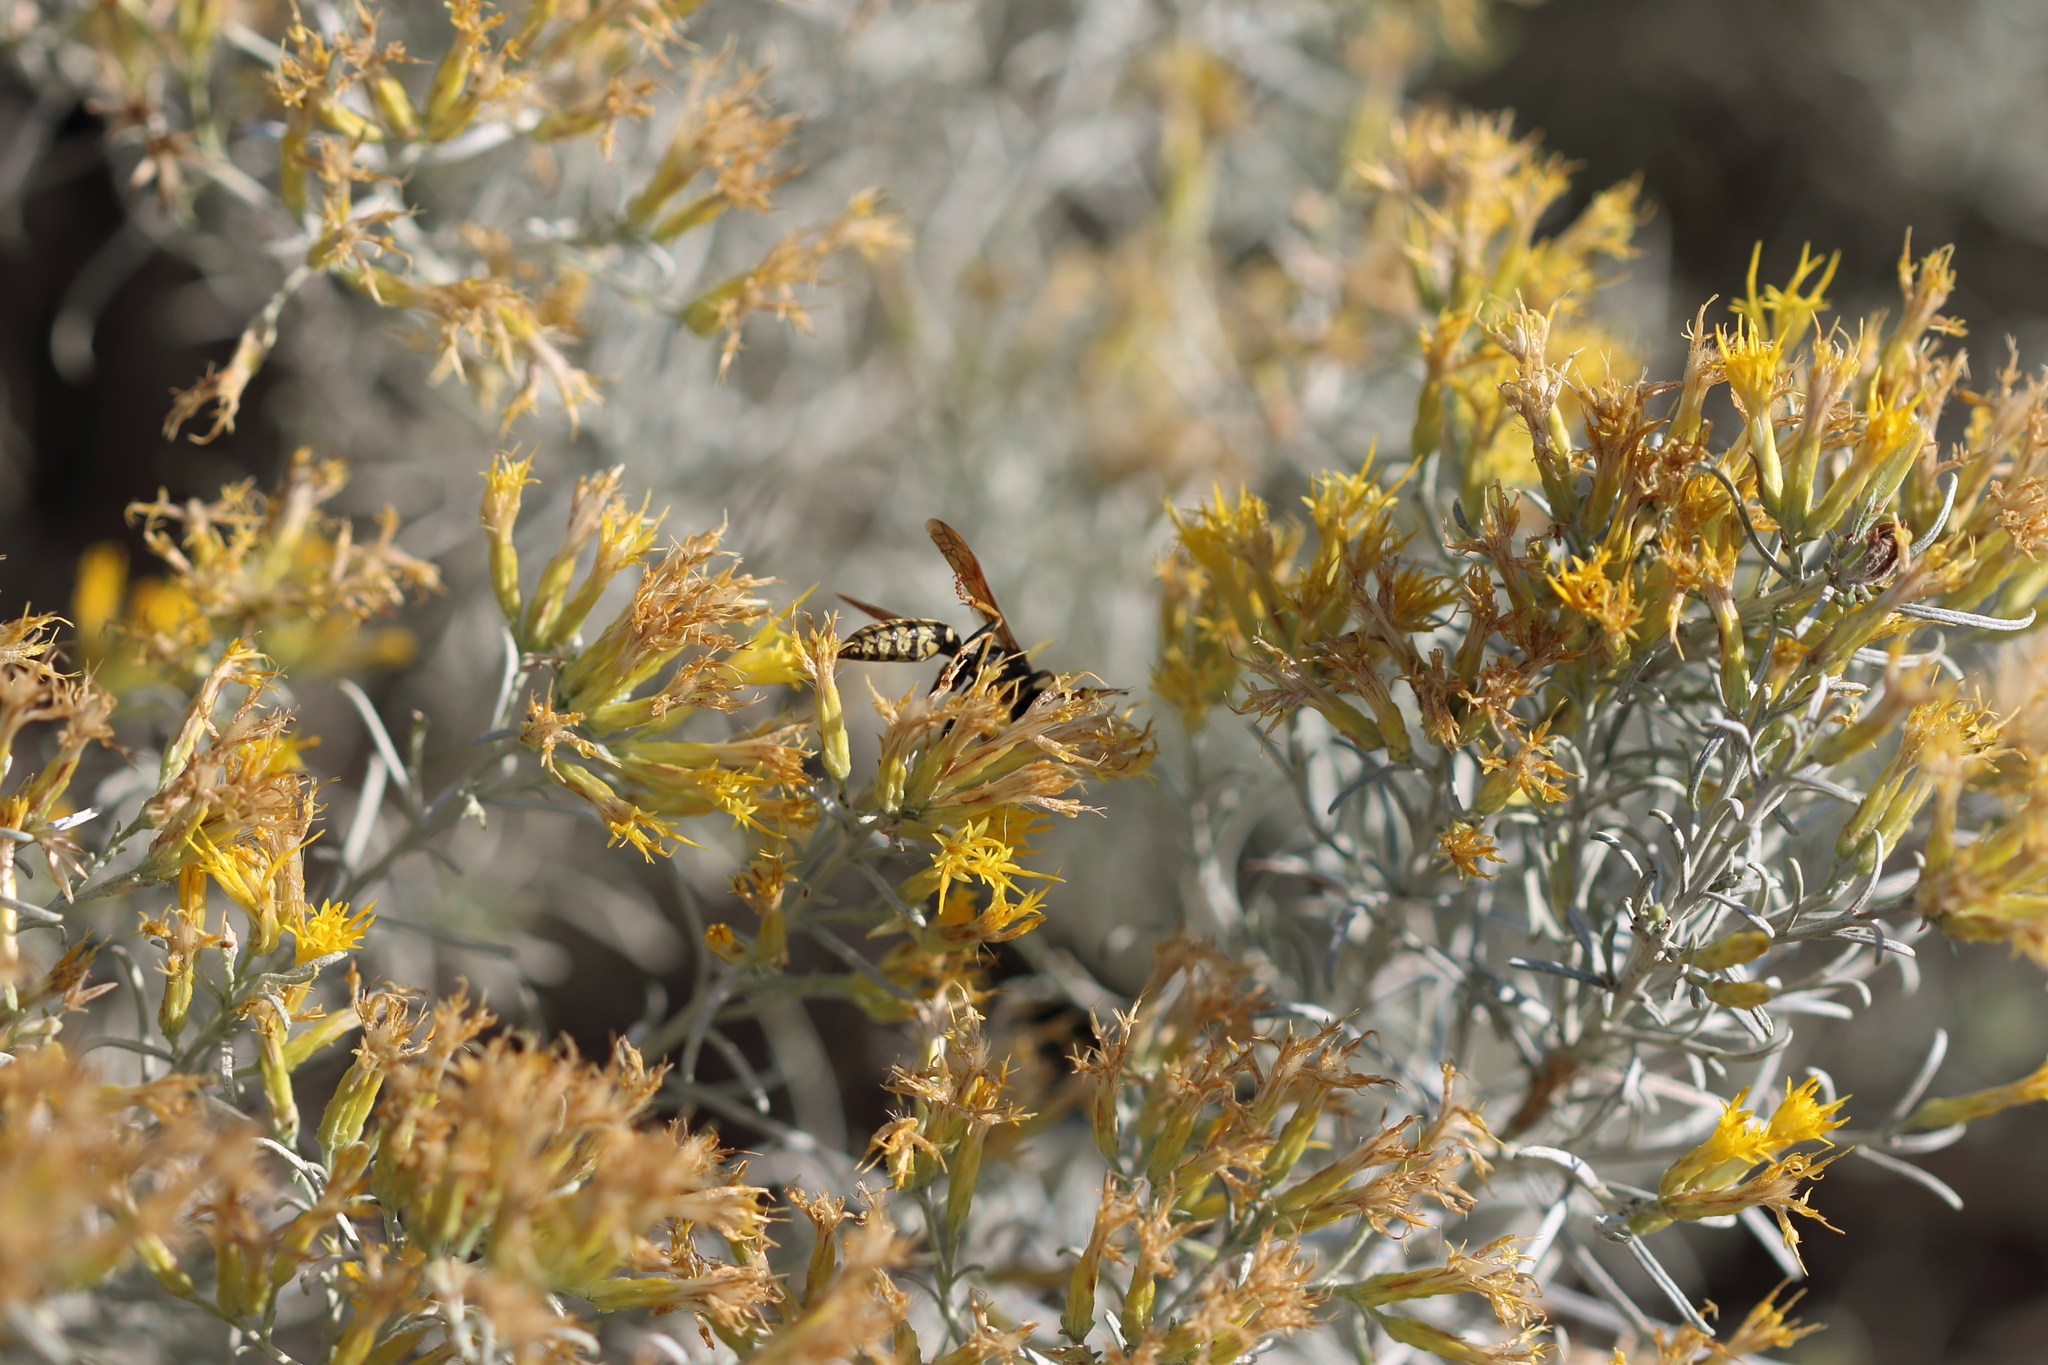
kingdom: Animalia
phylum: Arthropoda
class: Insecta
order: Hymenoptera
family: Eumenidae
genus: Polistes
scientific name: Polistes aurifer
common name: Paper wasp
